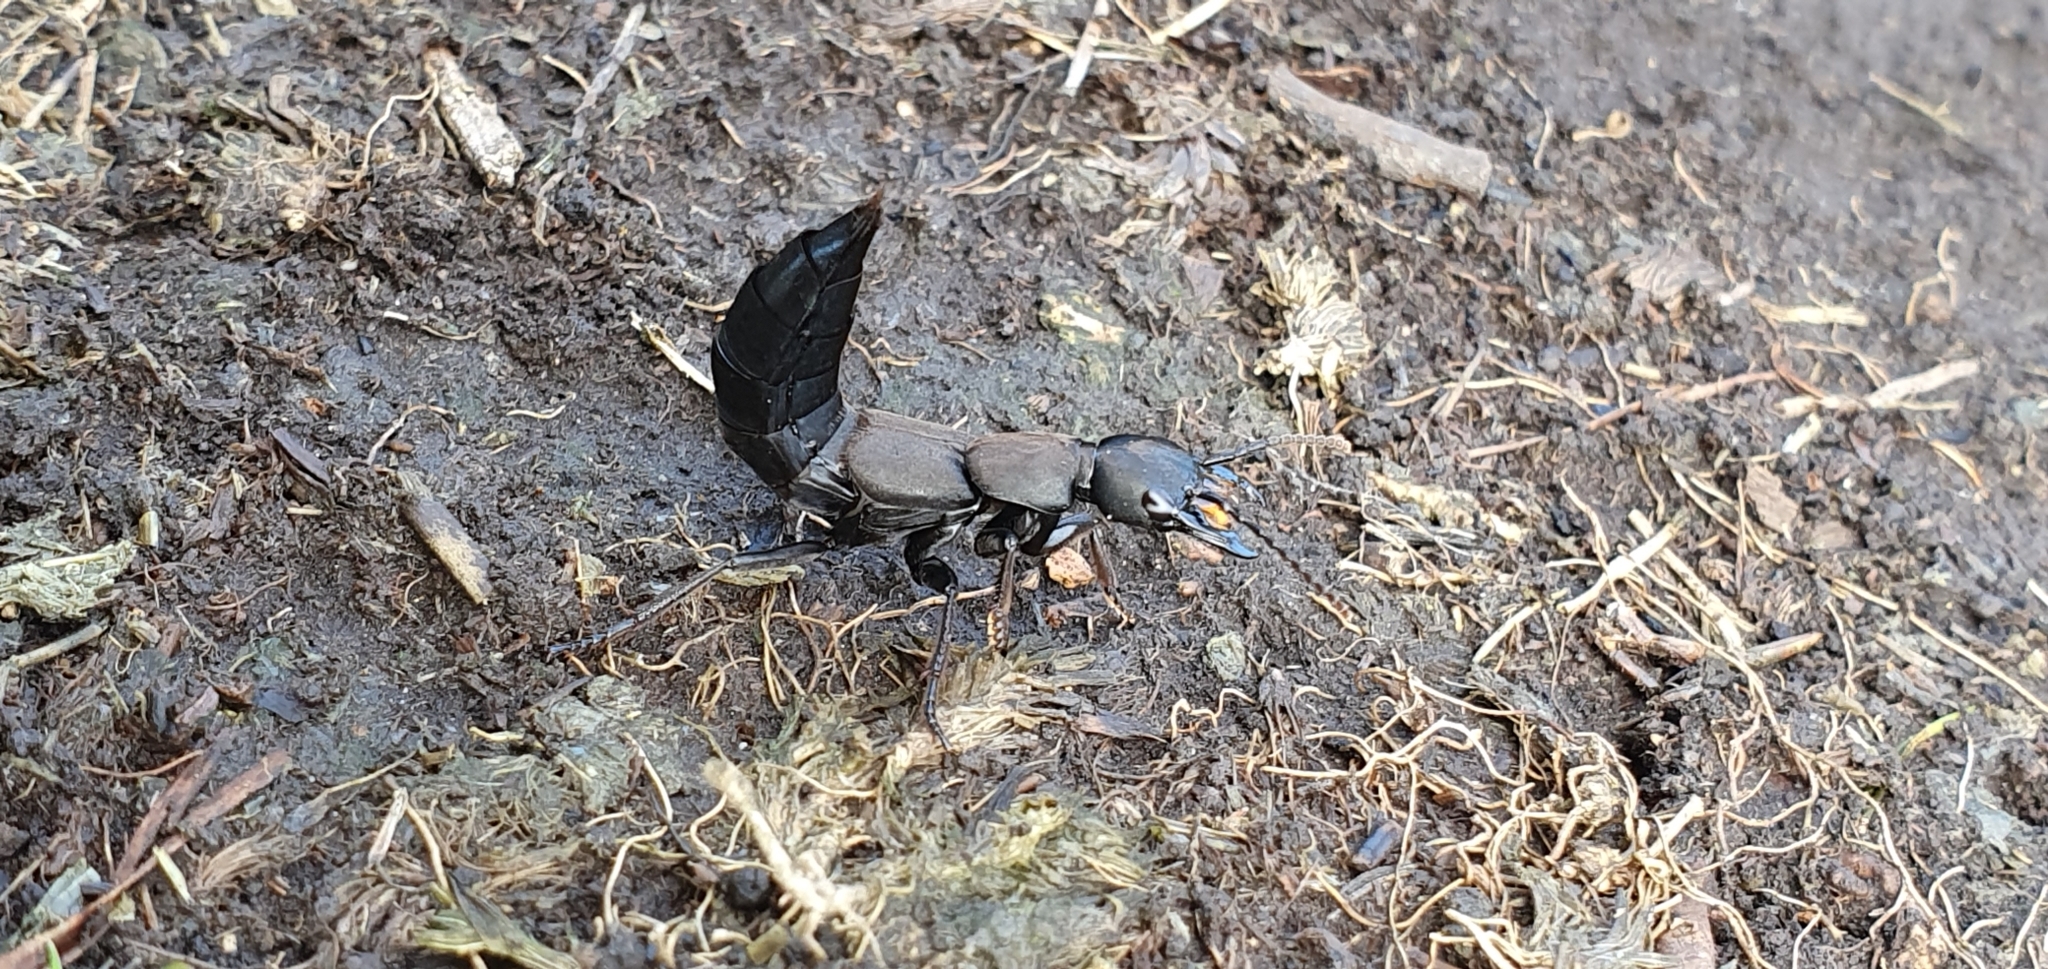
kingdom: Animalia
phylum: Arthropoda
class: Insecta
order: Coleoptera
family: Staphylinidae
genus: Ocypus
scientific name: Ocypus olens
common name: Devil's coach-horse
